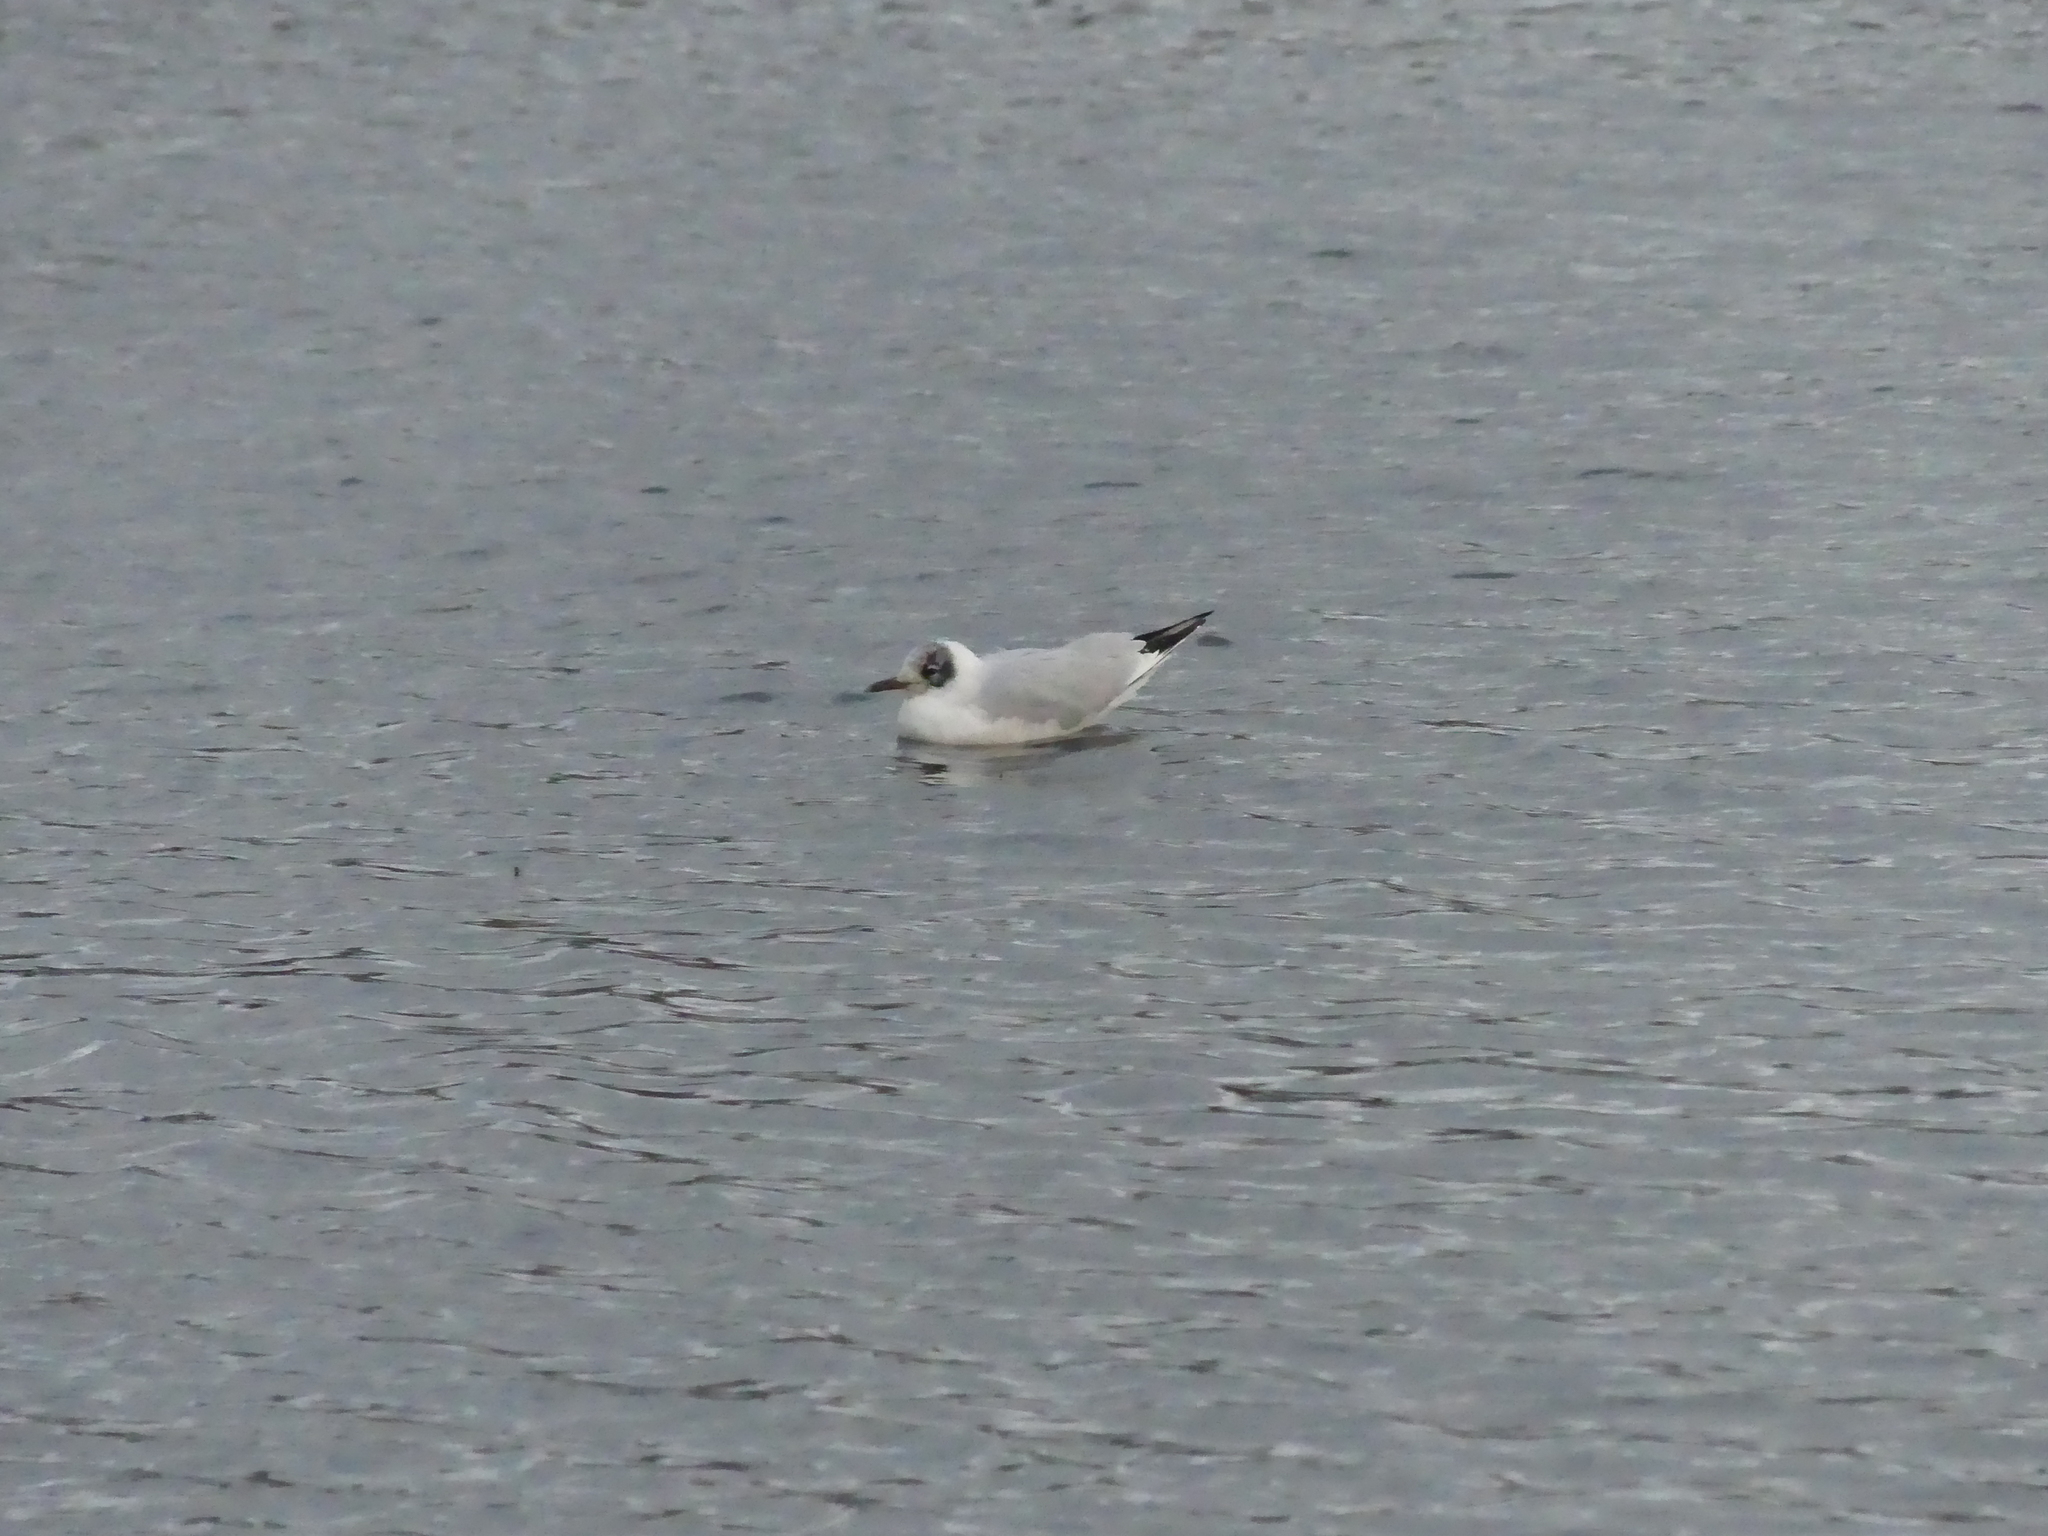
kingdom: Animalia
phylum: Chordata
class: Aves
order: Charadriiformes
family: Laridae
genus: Chroicocephalus
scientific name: Chroicocephalus ridibundus
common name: Black-headed gull
